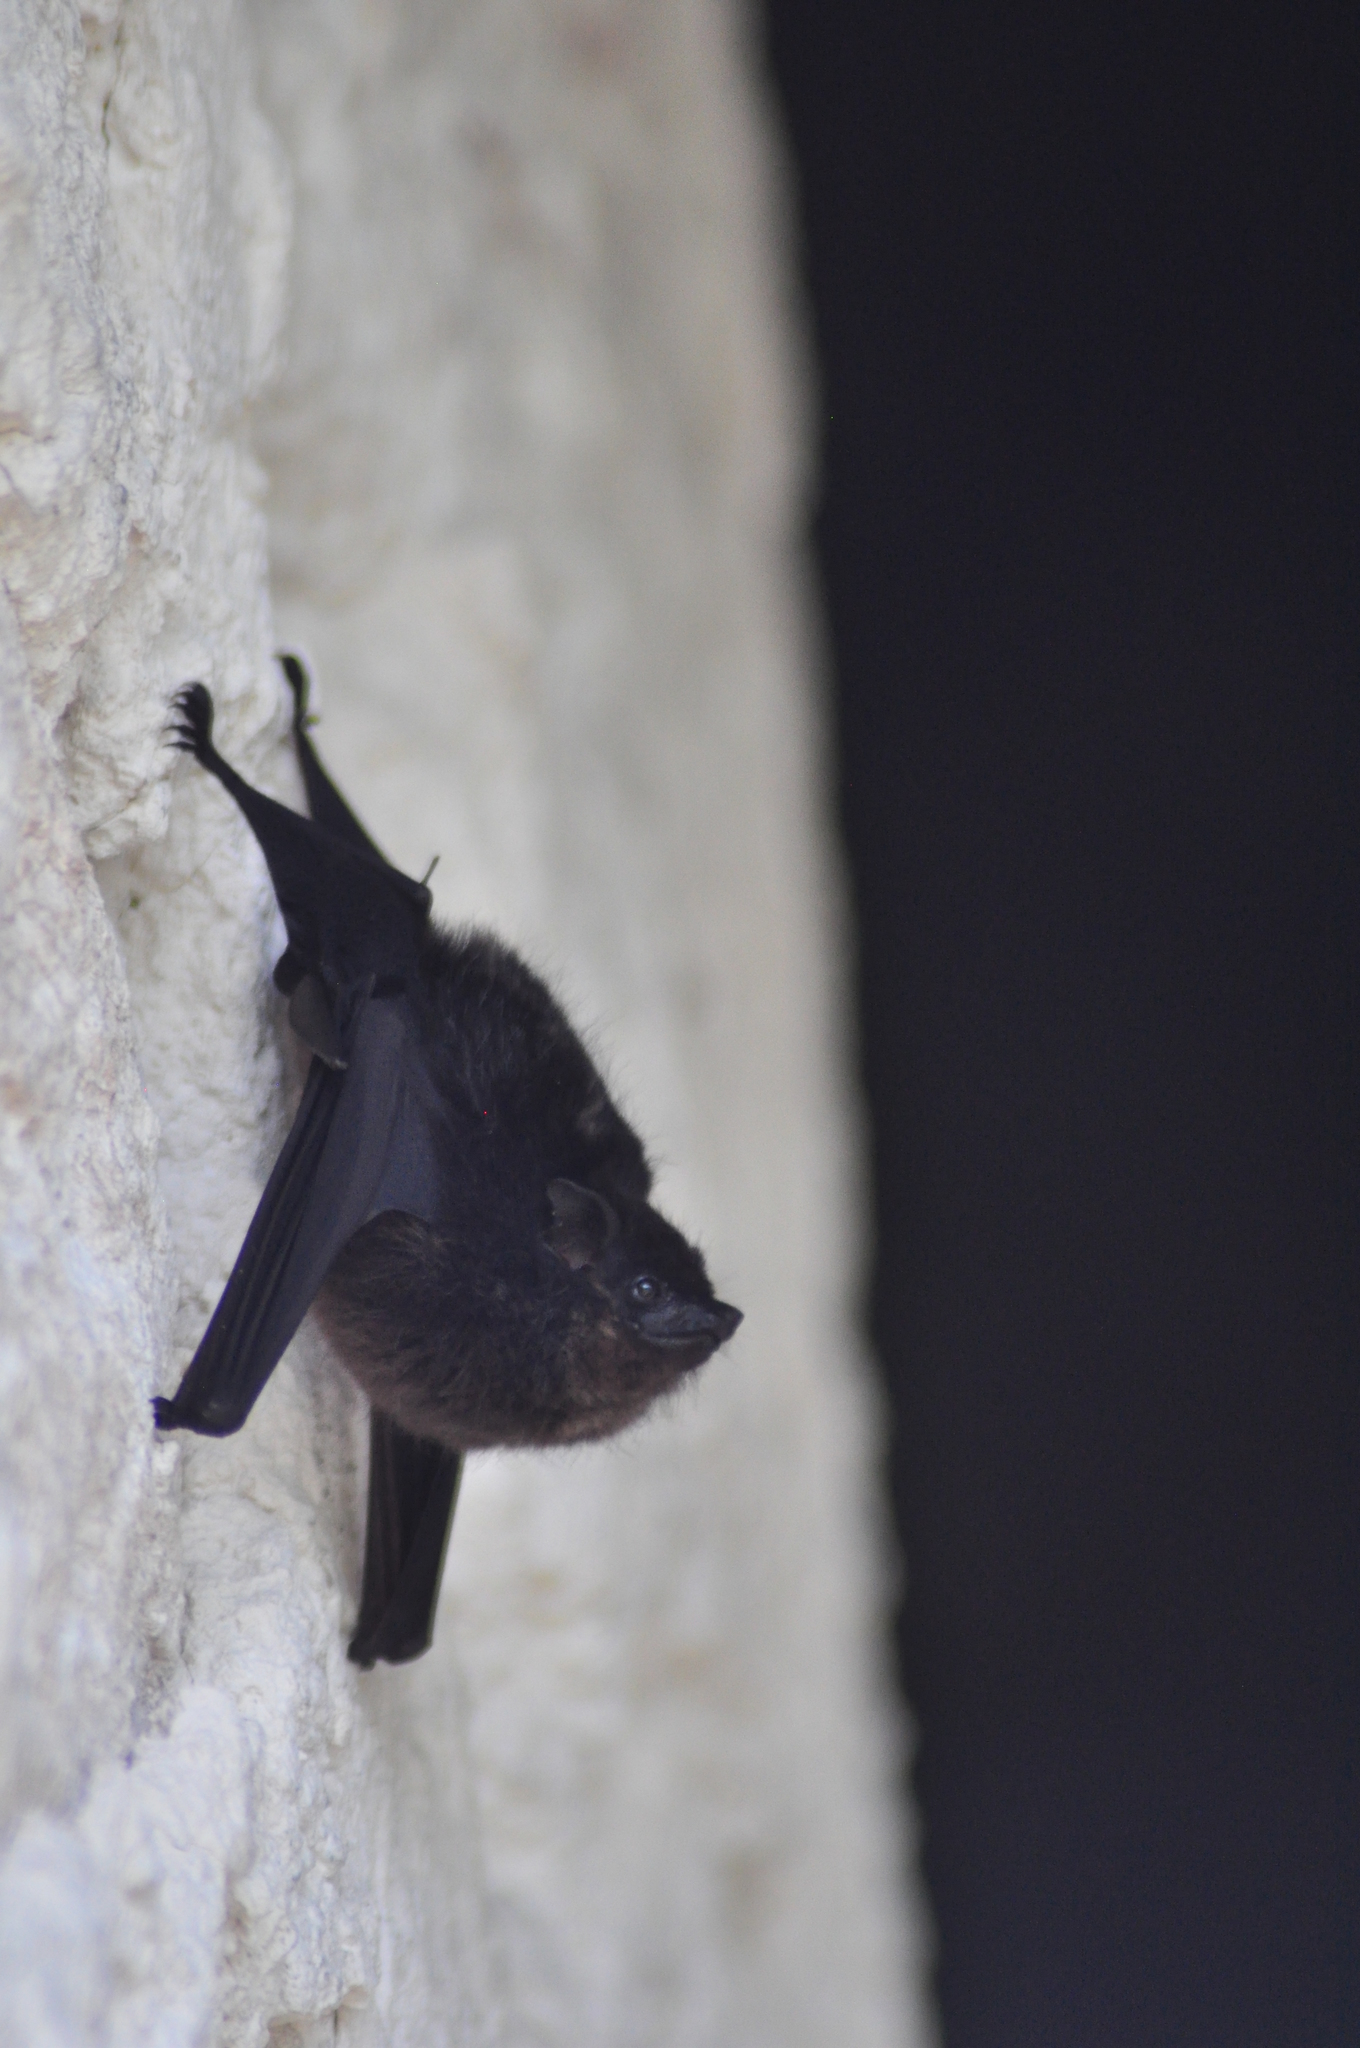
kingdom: Animalia
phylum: Chordata
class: Mammalia
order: Chiroptera
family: Emballonuridae
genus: Saccopteryx
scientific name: Saccopteryx bilineata
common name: Greater sac-winged bat
